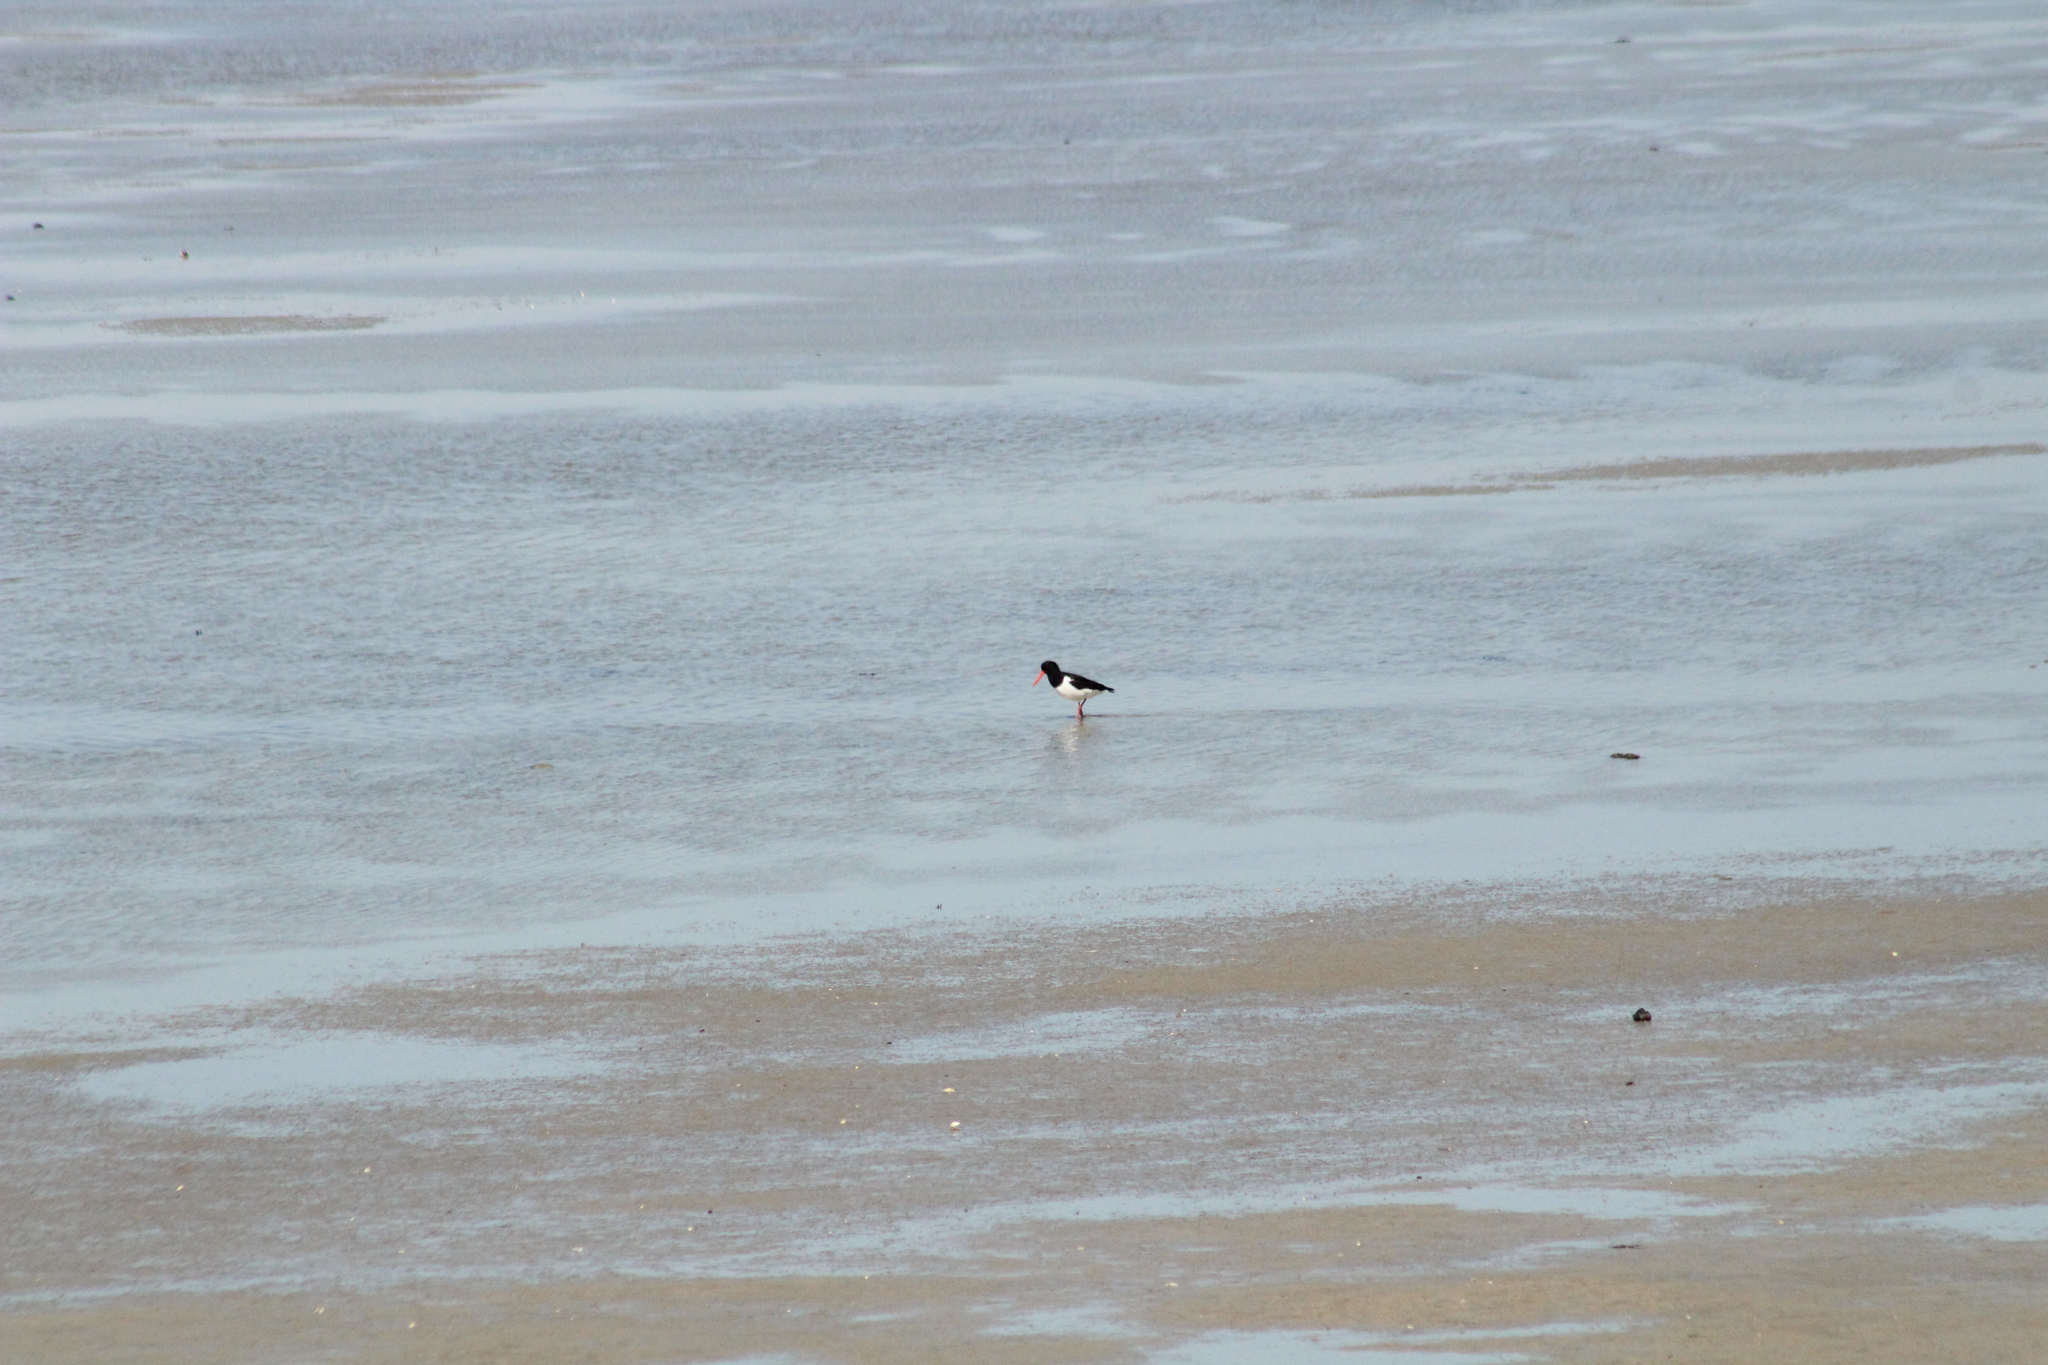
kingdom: Animalia
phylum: Chordata
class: Aves
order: Charadriiformes
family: Haematopodidae
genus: Haematopus
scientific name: Haematopus ostralegus
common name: Eurasian oystercatcher
